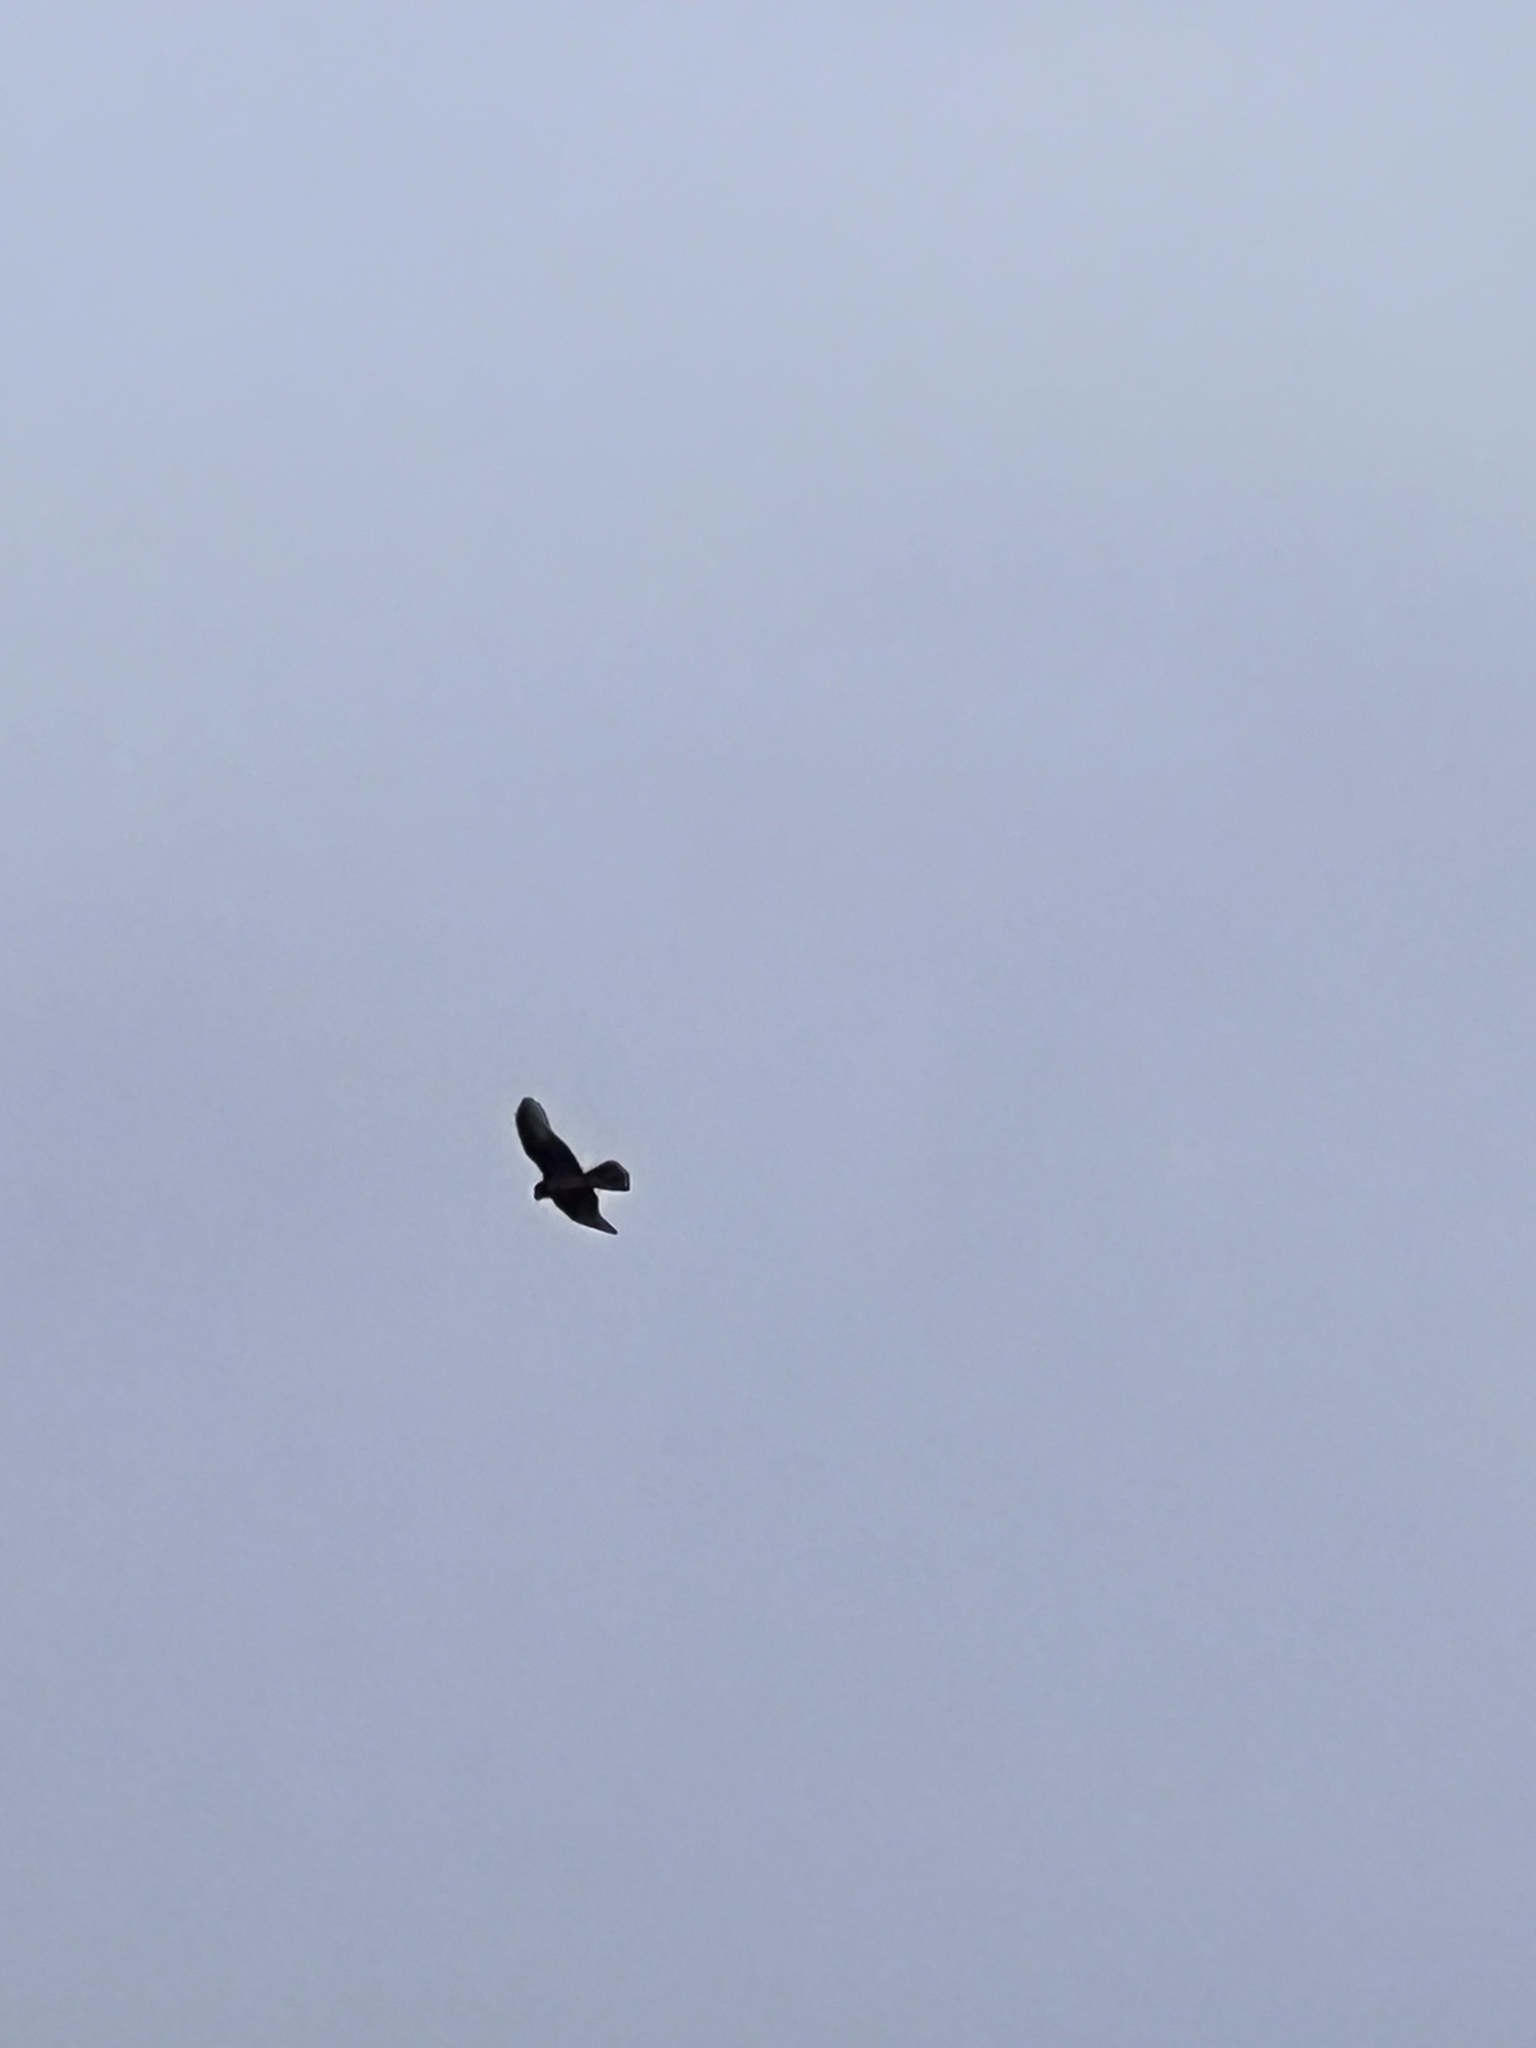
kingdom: Animalia
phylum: Chordata
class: Aves
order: Accipitriformes
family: Accipitridae
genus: Circus
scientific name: Circus approximans
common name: Swamp harrier
